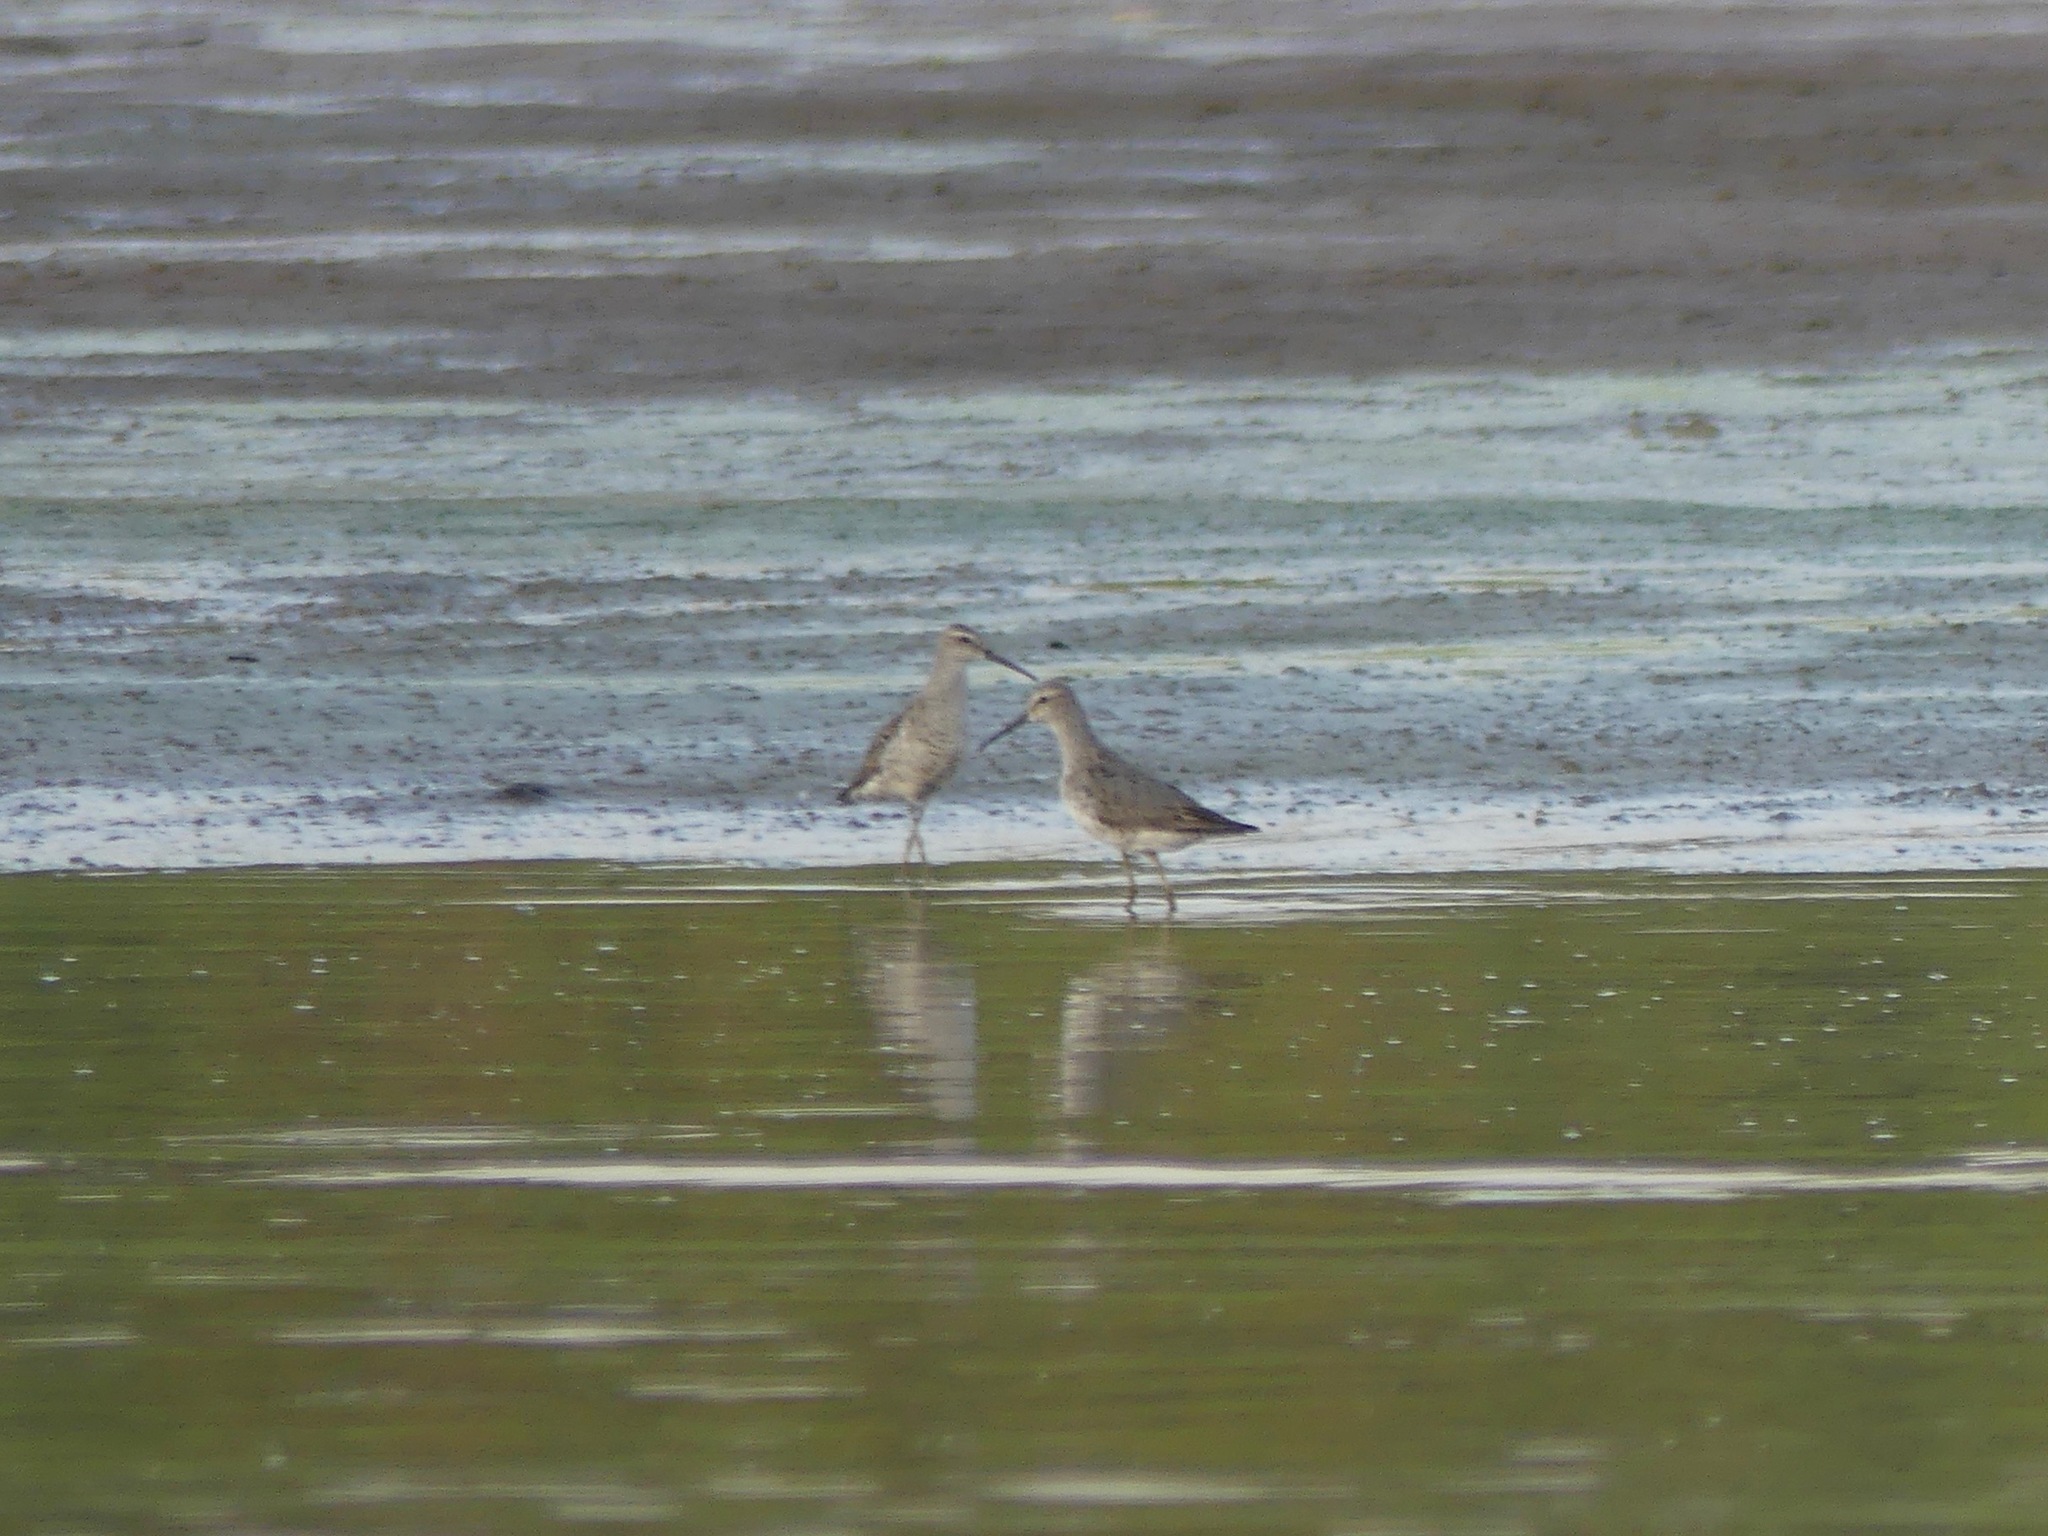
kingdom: Animalia
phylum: Chordata
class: Aves
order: Charadriiformes
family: Scolopacidae
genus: Calidris
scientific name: Calidris himantopus
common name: Stilt sandpiper
